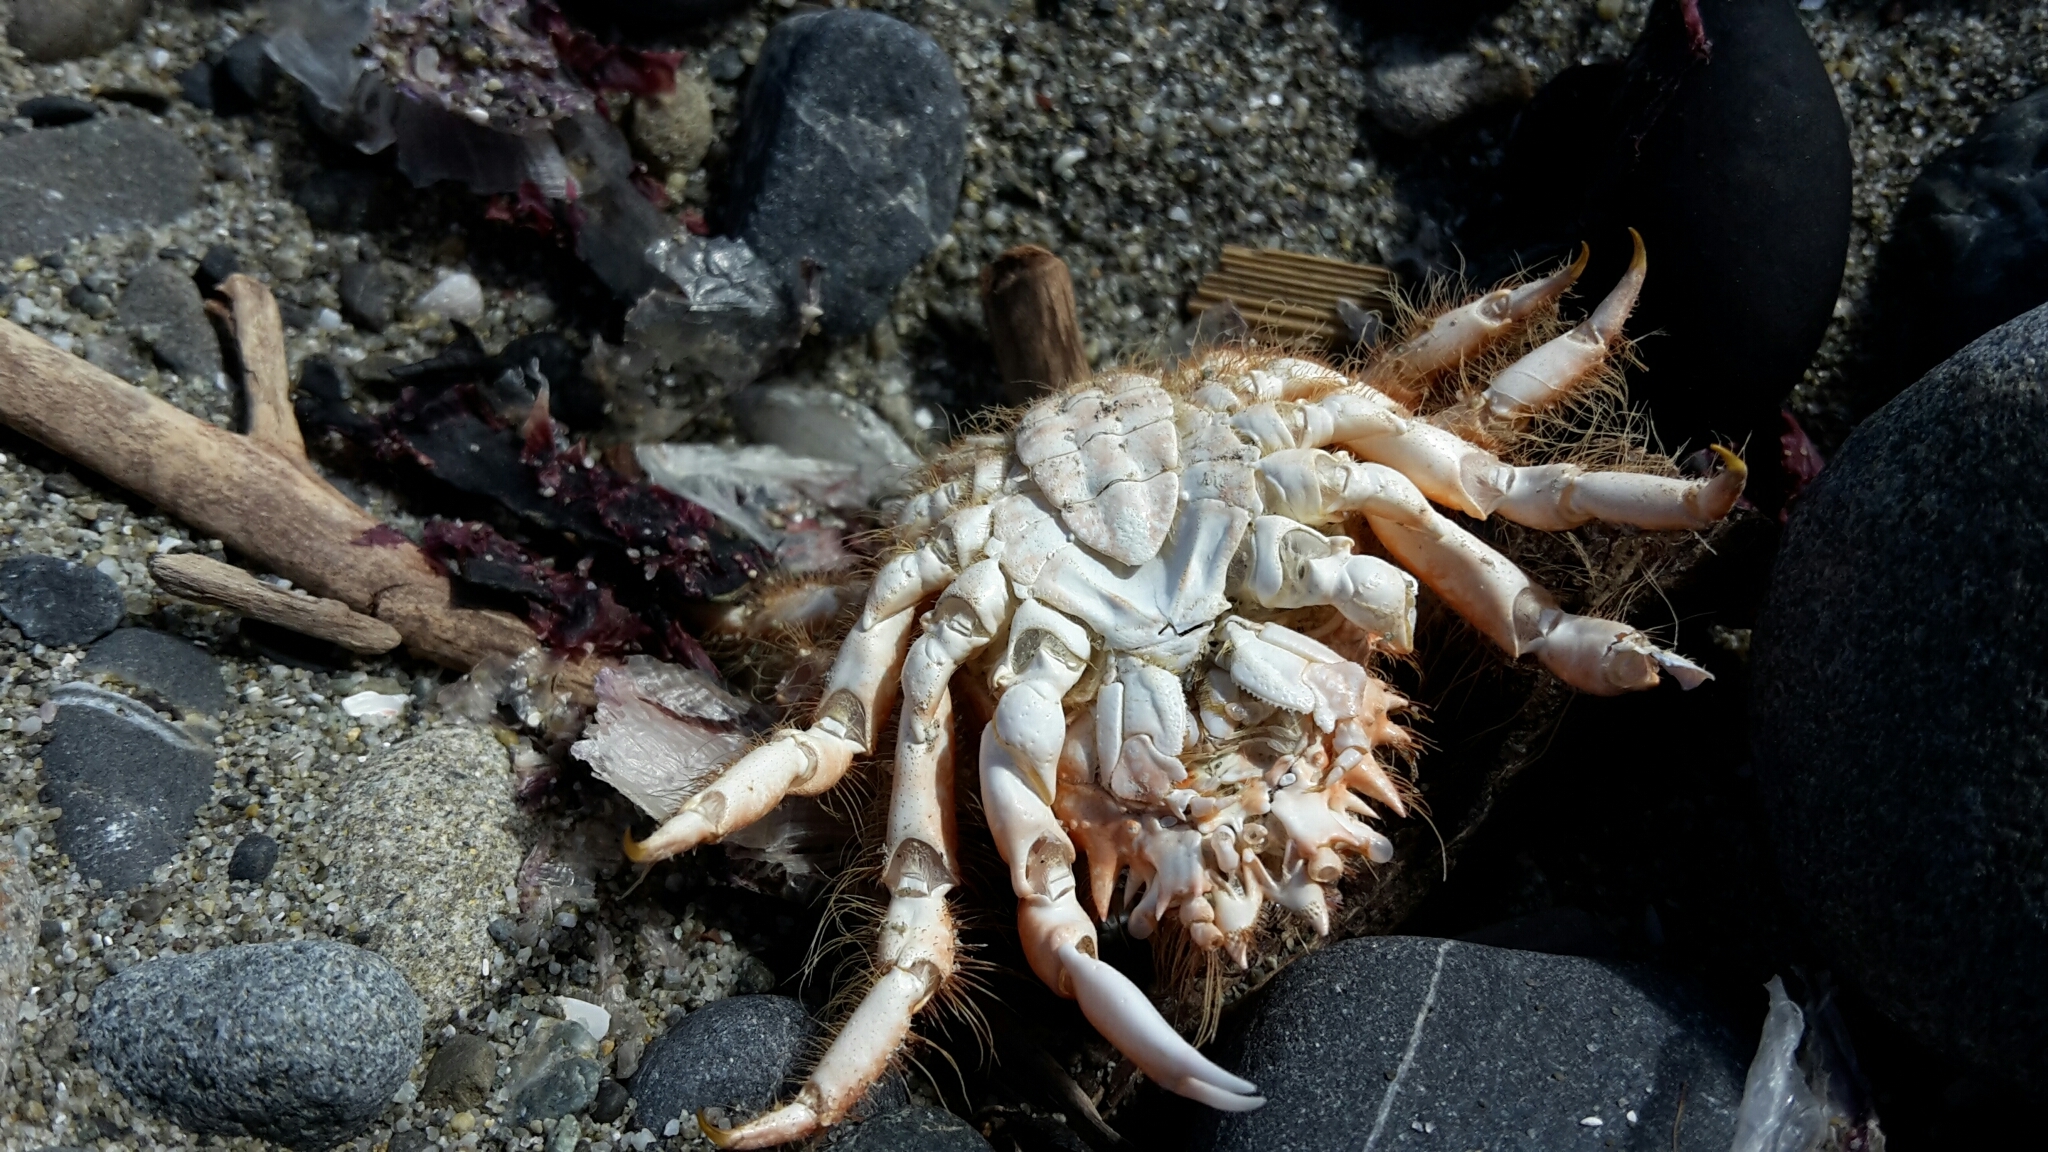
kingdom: Animalia
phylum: Arthropoda
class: Malacostraca
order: Decapoda
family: Majidae
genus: Notomithrax
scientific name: Notomithrax ursus
